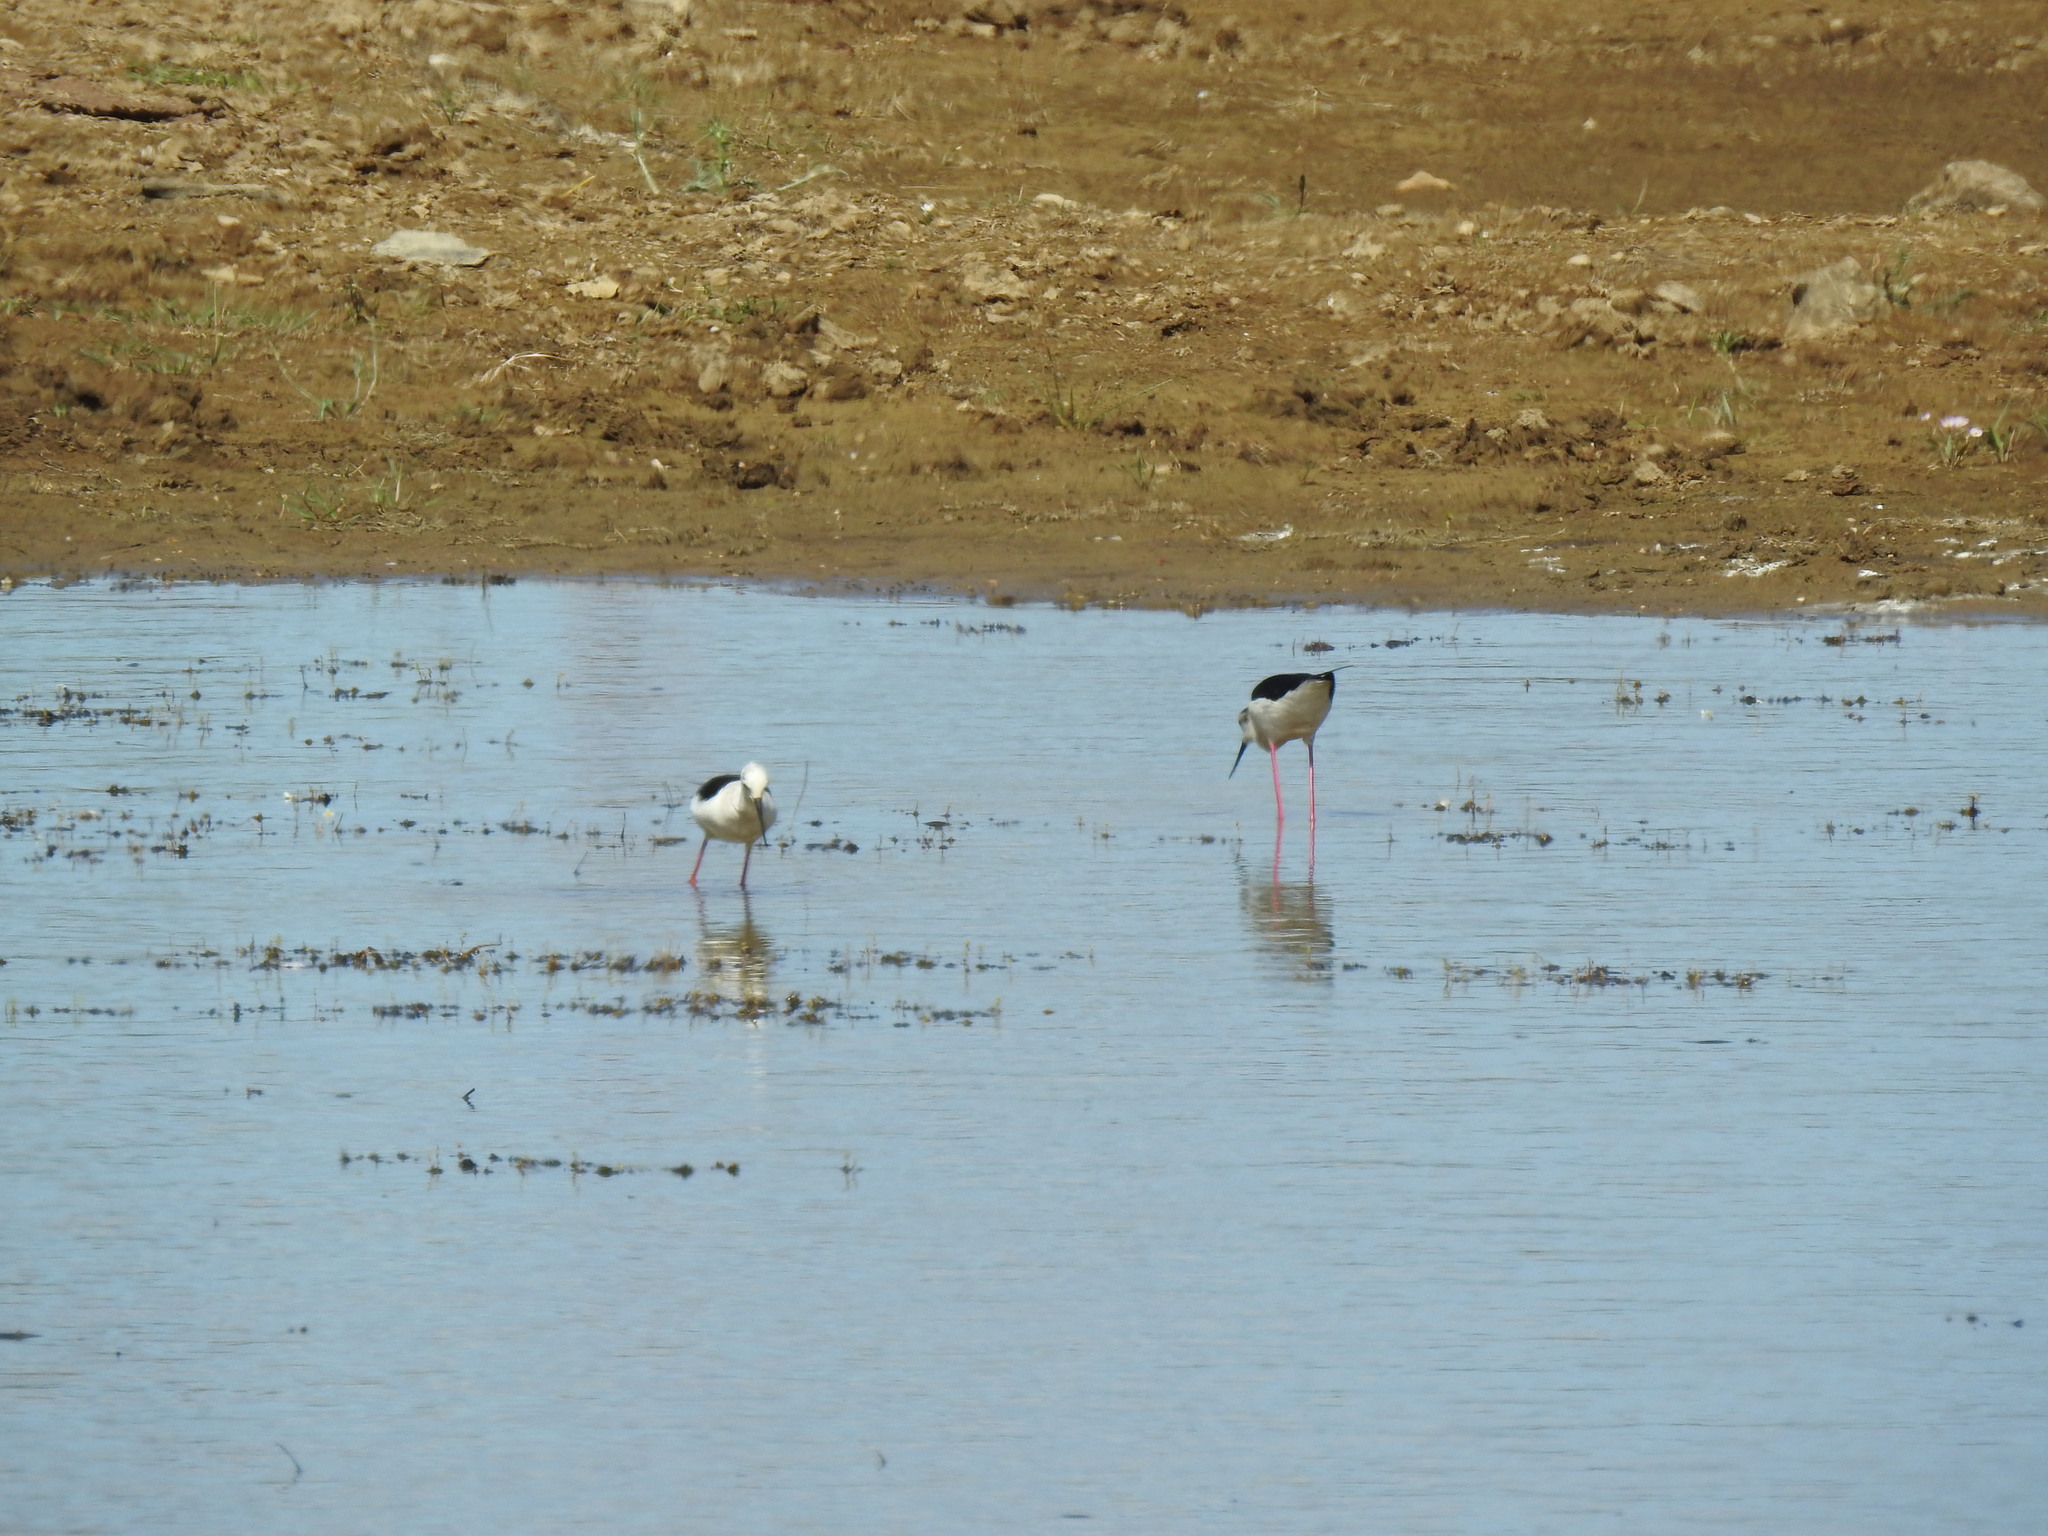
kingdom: Animalia
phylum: Chordata
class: Aves
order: Charadriiformes
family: Recurvirostridae
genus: Himantopus
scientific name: Himantopus himantopus
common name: Black-winged stilt
